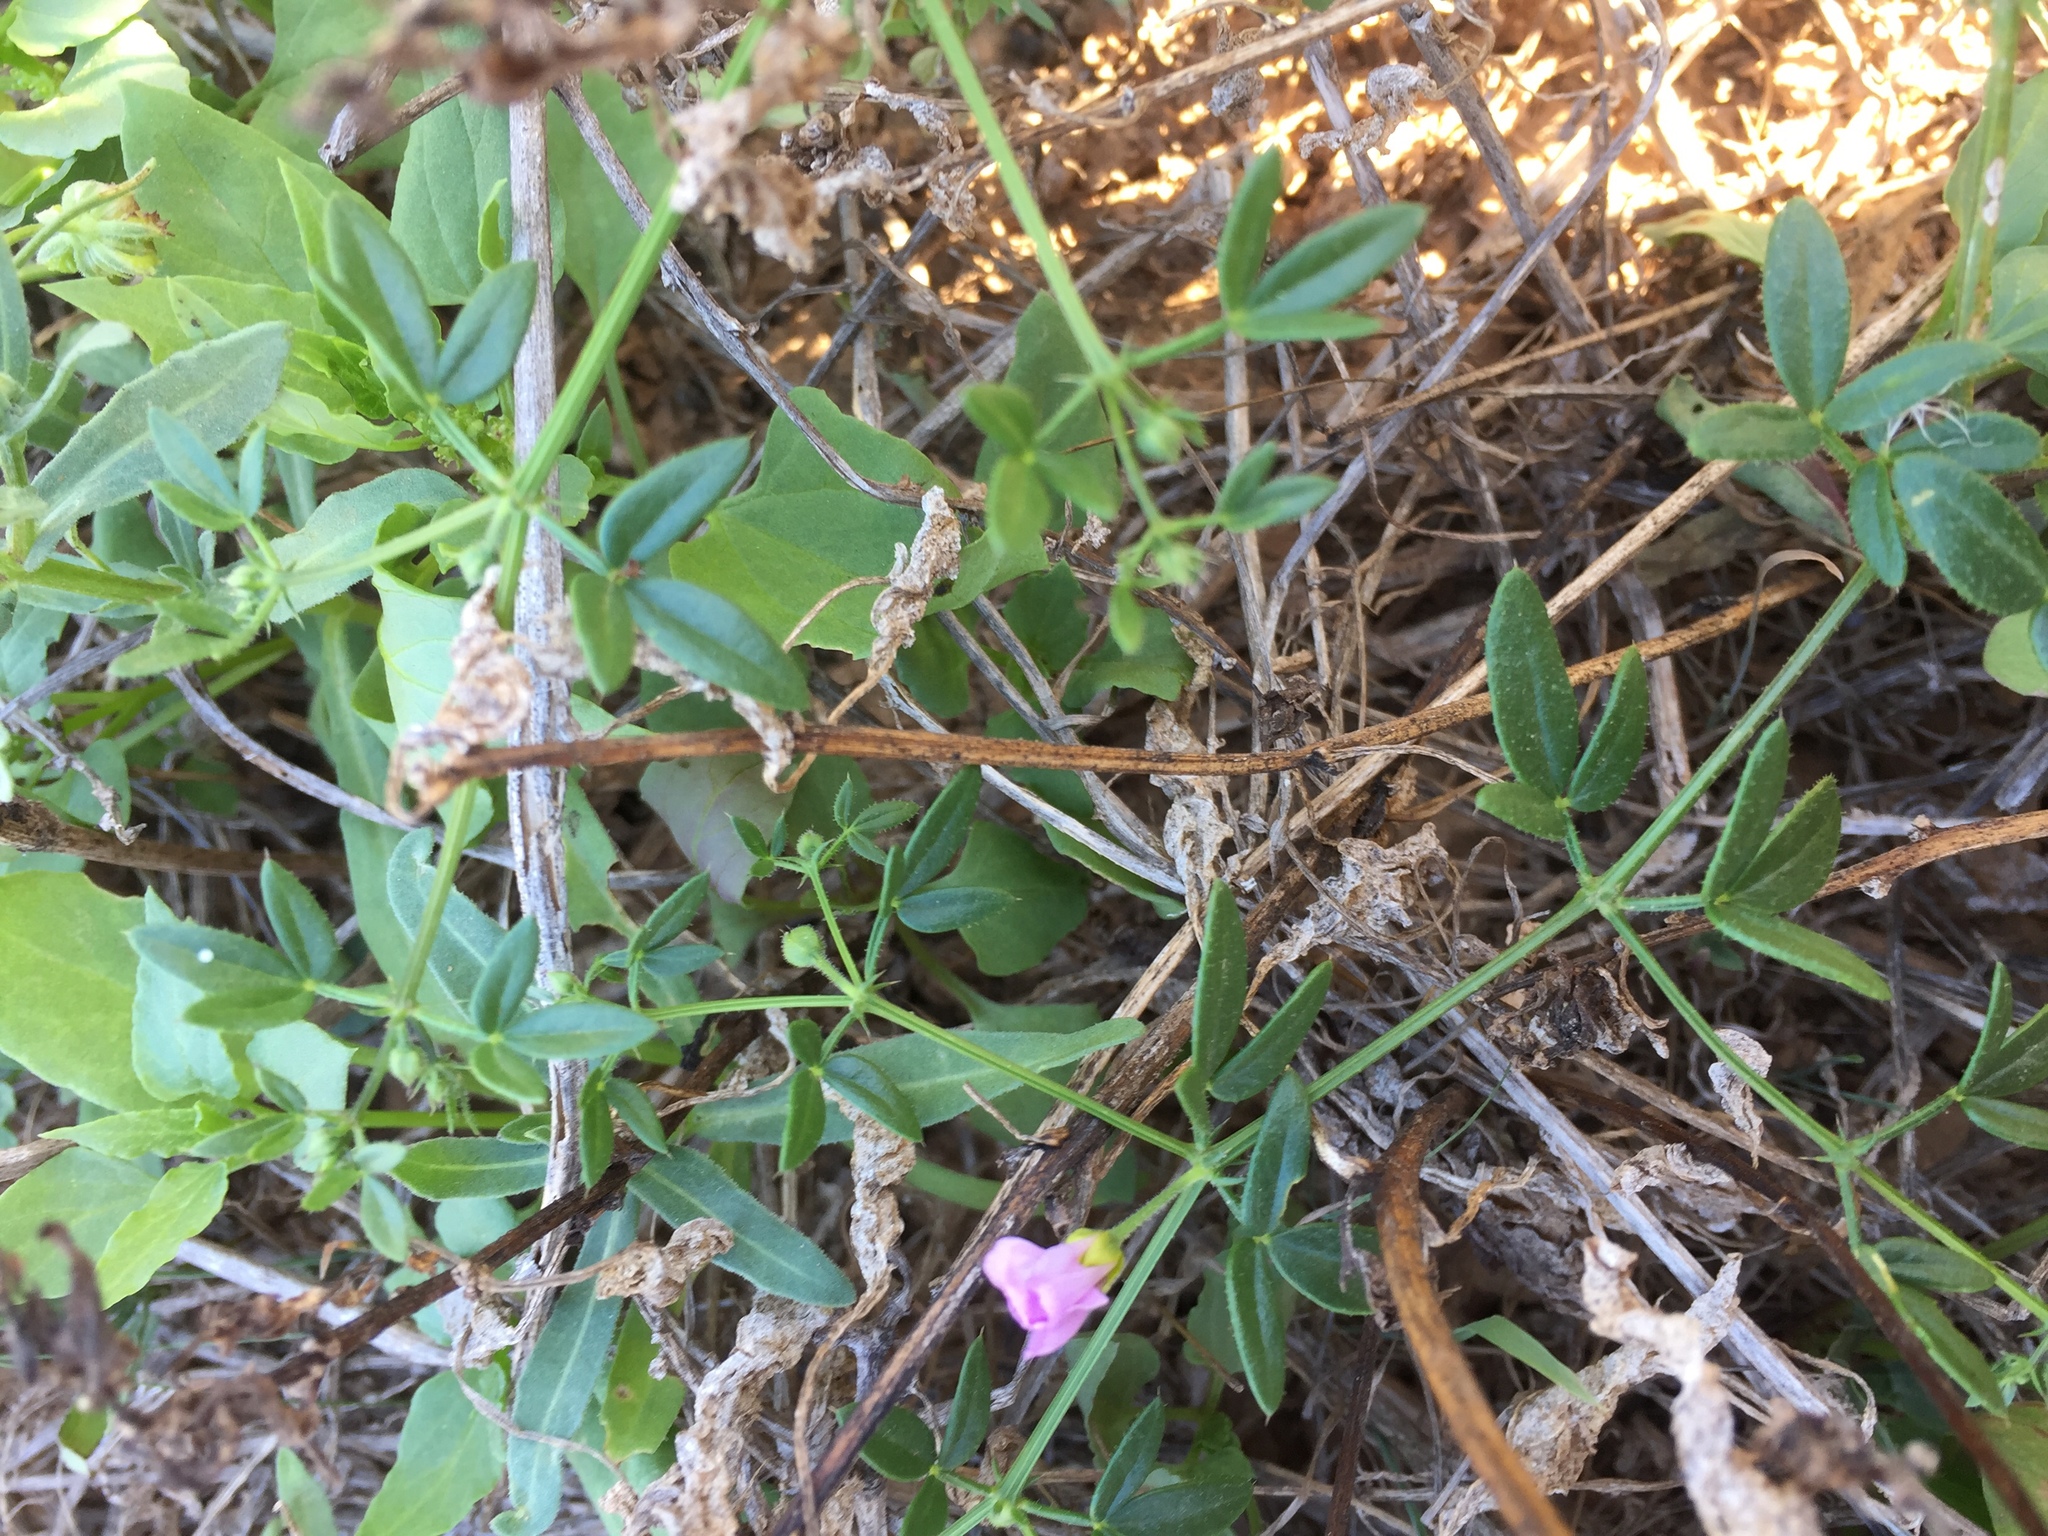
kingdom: Plantae
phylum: Tracheophyta
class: Magnoliopsida
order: Zygophyllales
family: Zygophyllaceae
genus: Fagonia
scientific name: Fagonia cretica
